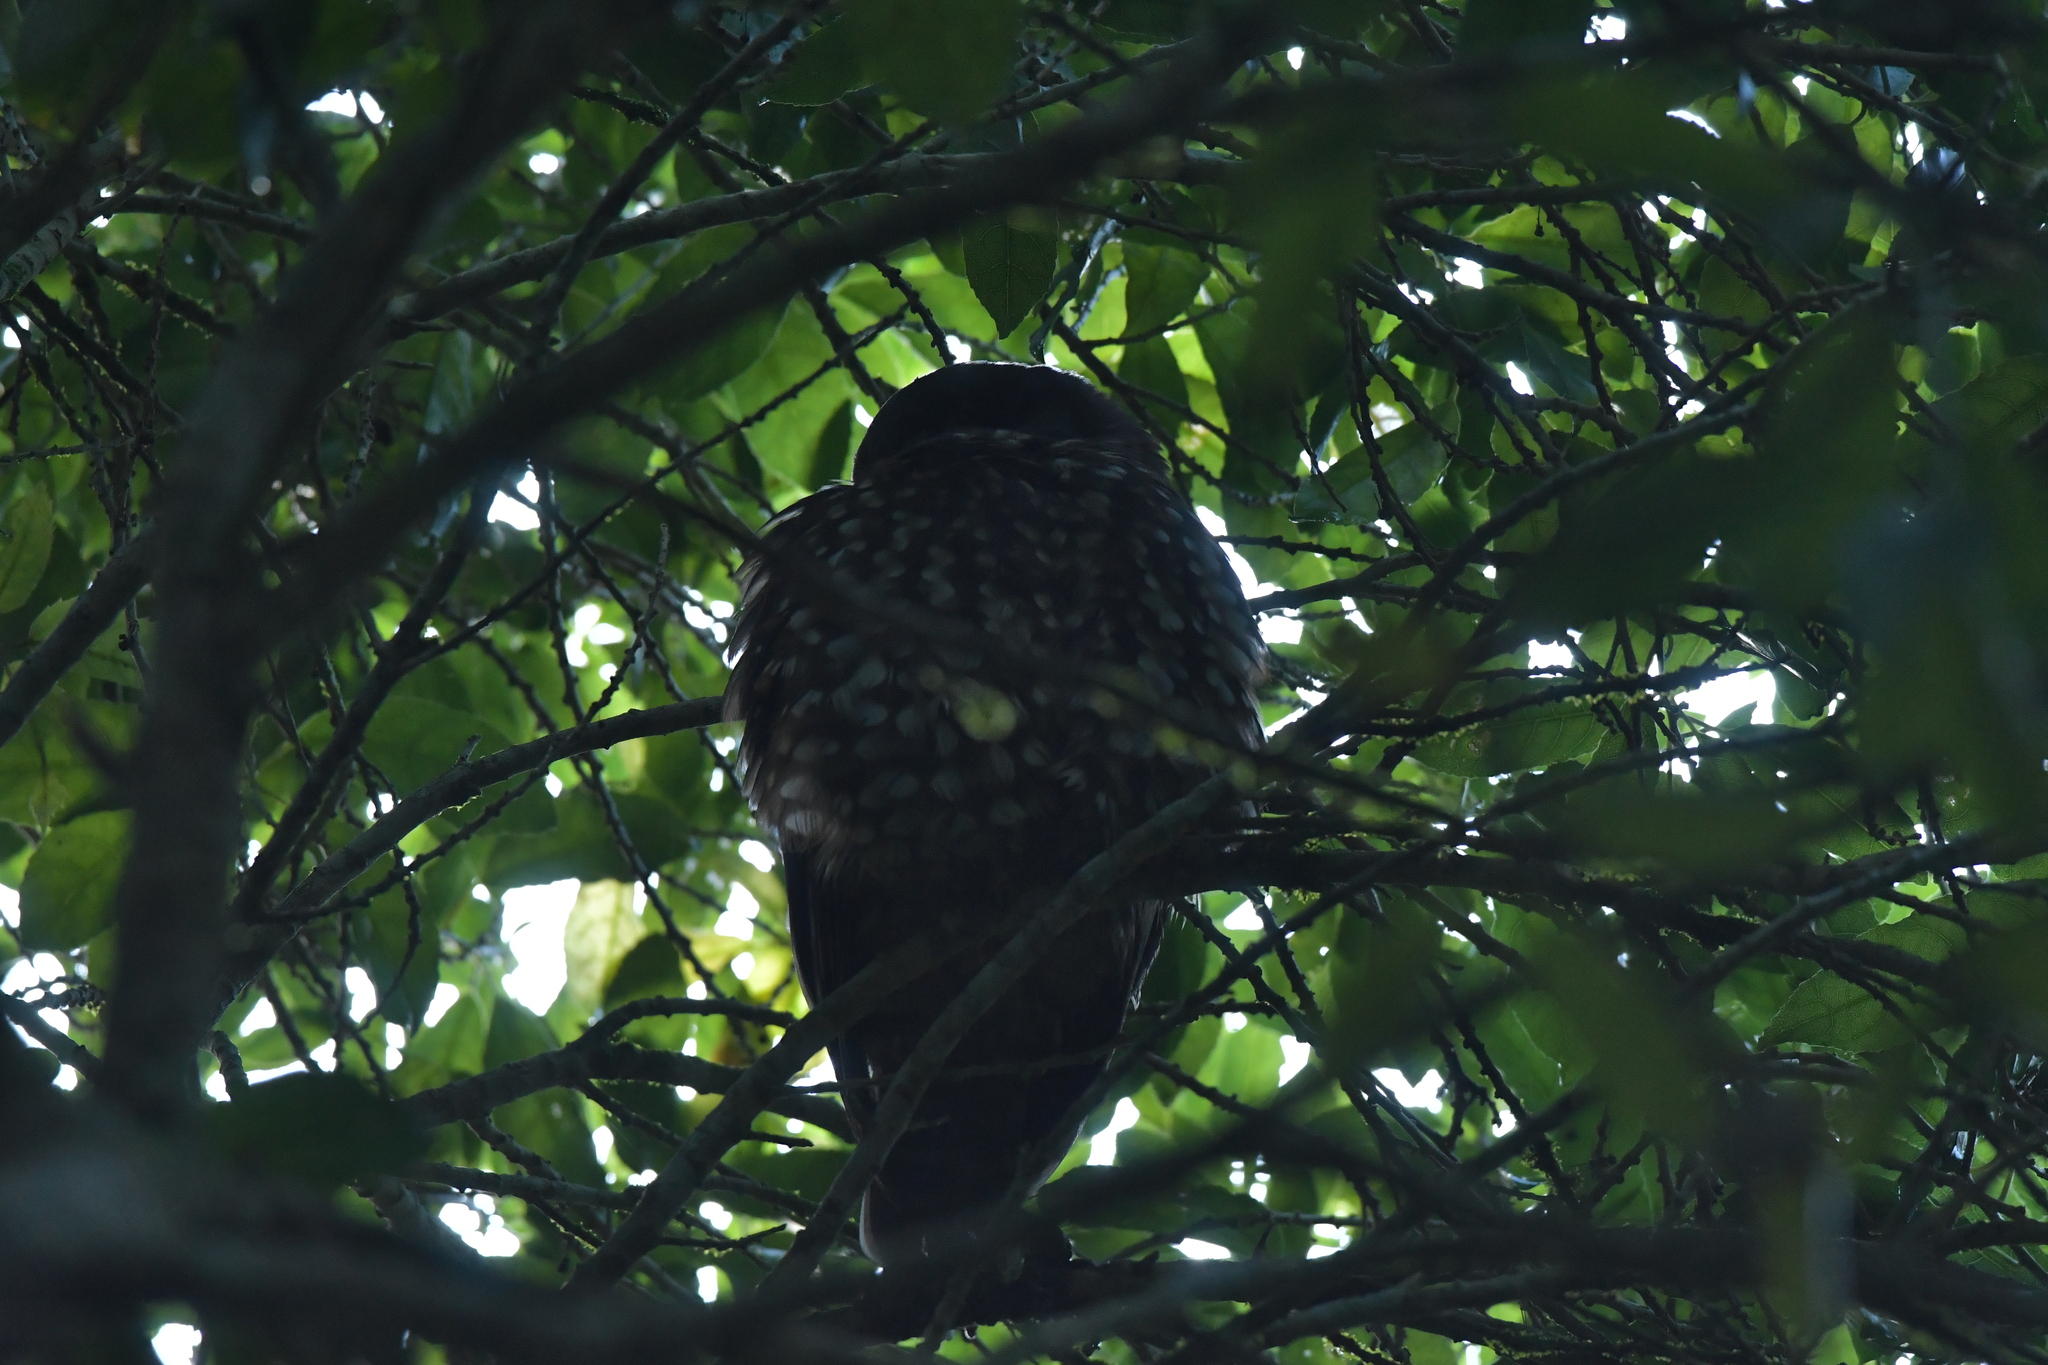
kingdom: Animalia
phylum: Chordata
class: Aves
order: Strigiformes
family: Strigidae
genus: Ninox
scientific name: Ninox novaeseelandiae
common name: Morepork
